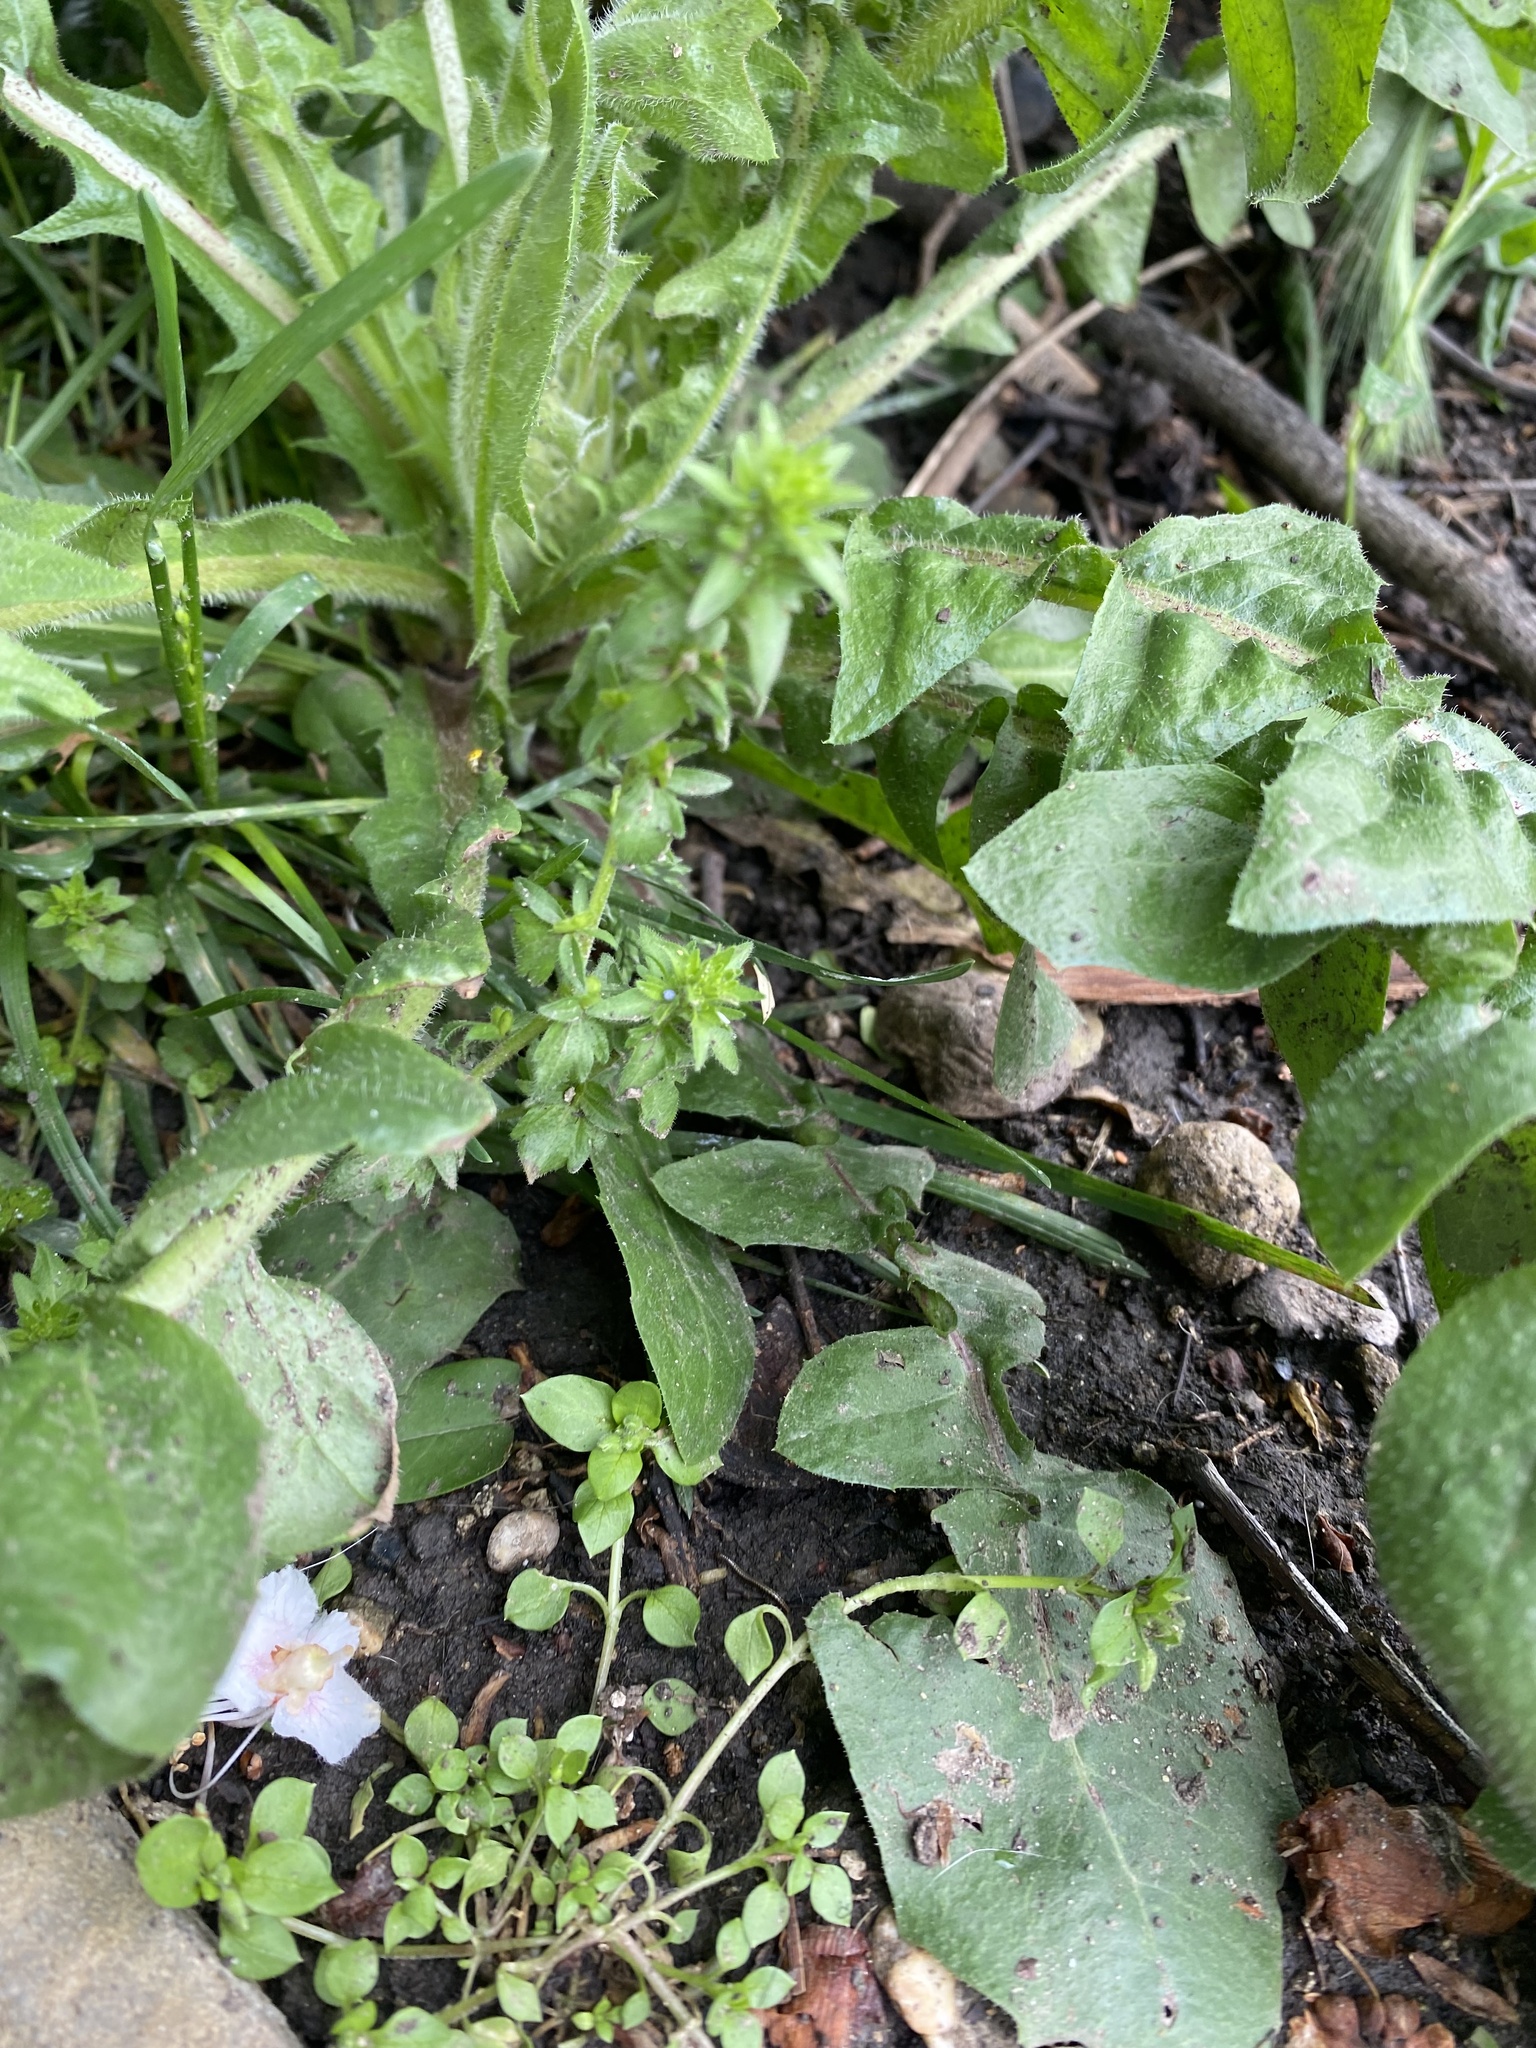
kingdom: Plantae
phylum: Tracheophyta
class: Magnoliopsida
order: Lamiales
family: Plantaginaceae
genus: Veronica
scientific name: Veronica arvensis
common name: Corn speedwell
